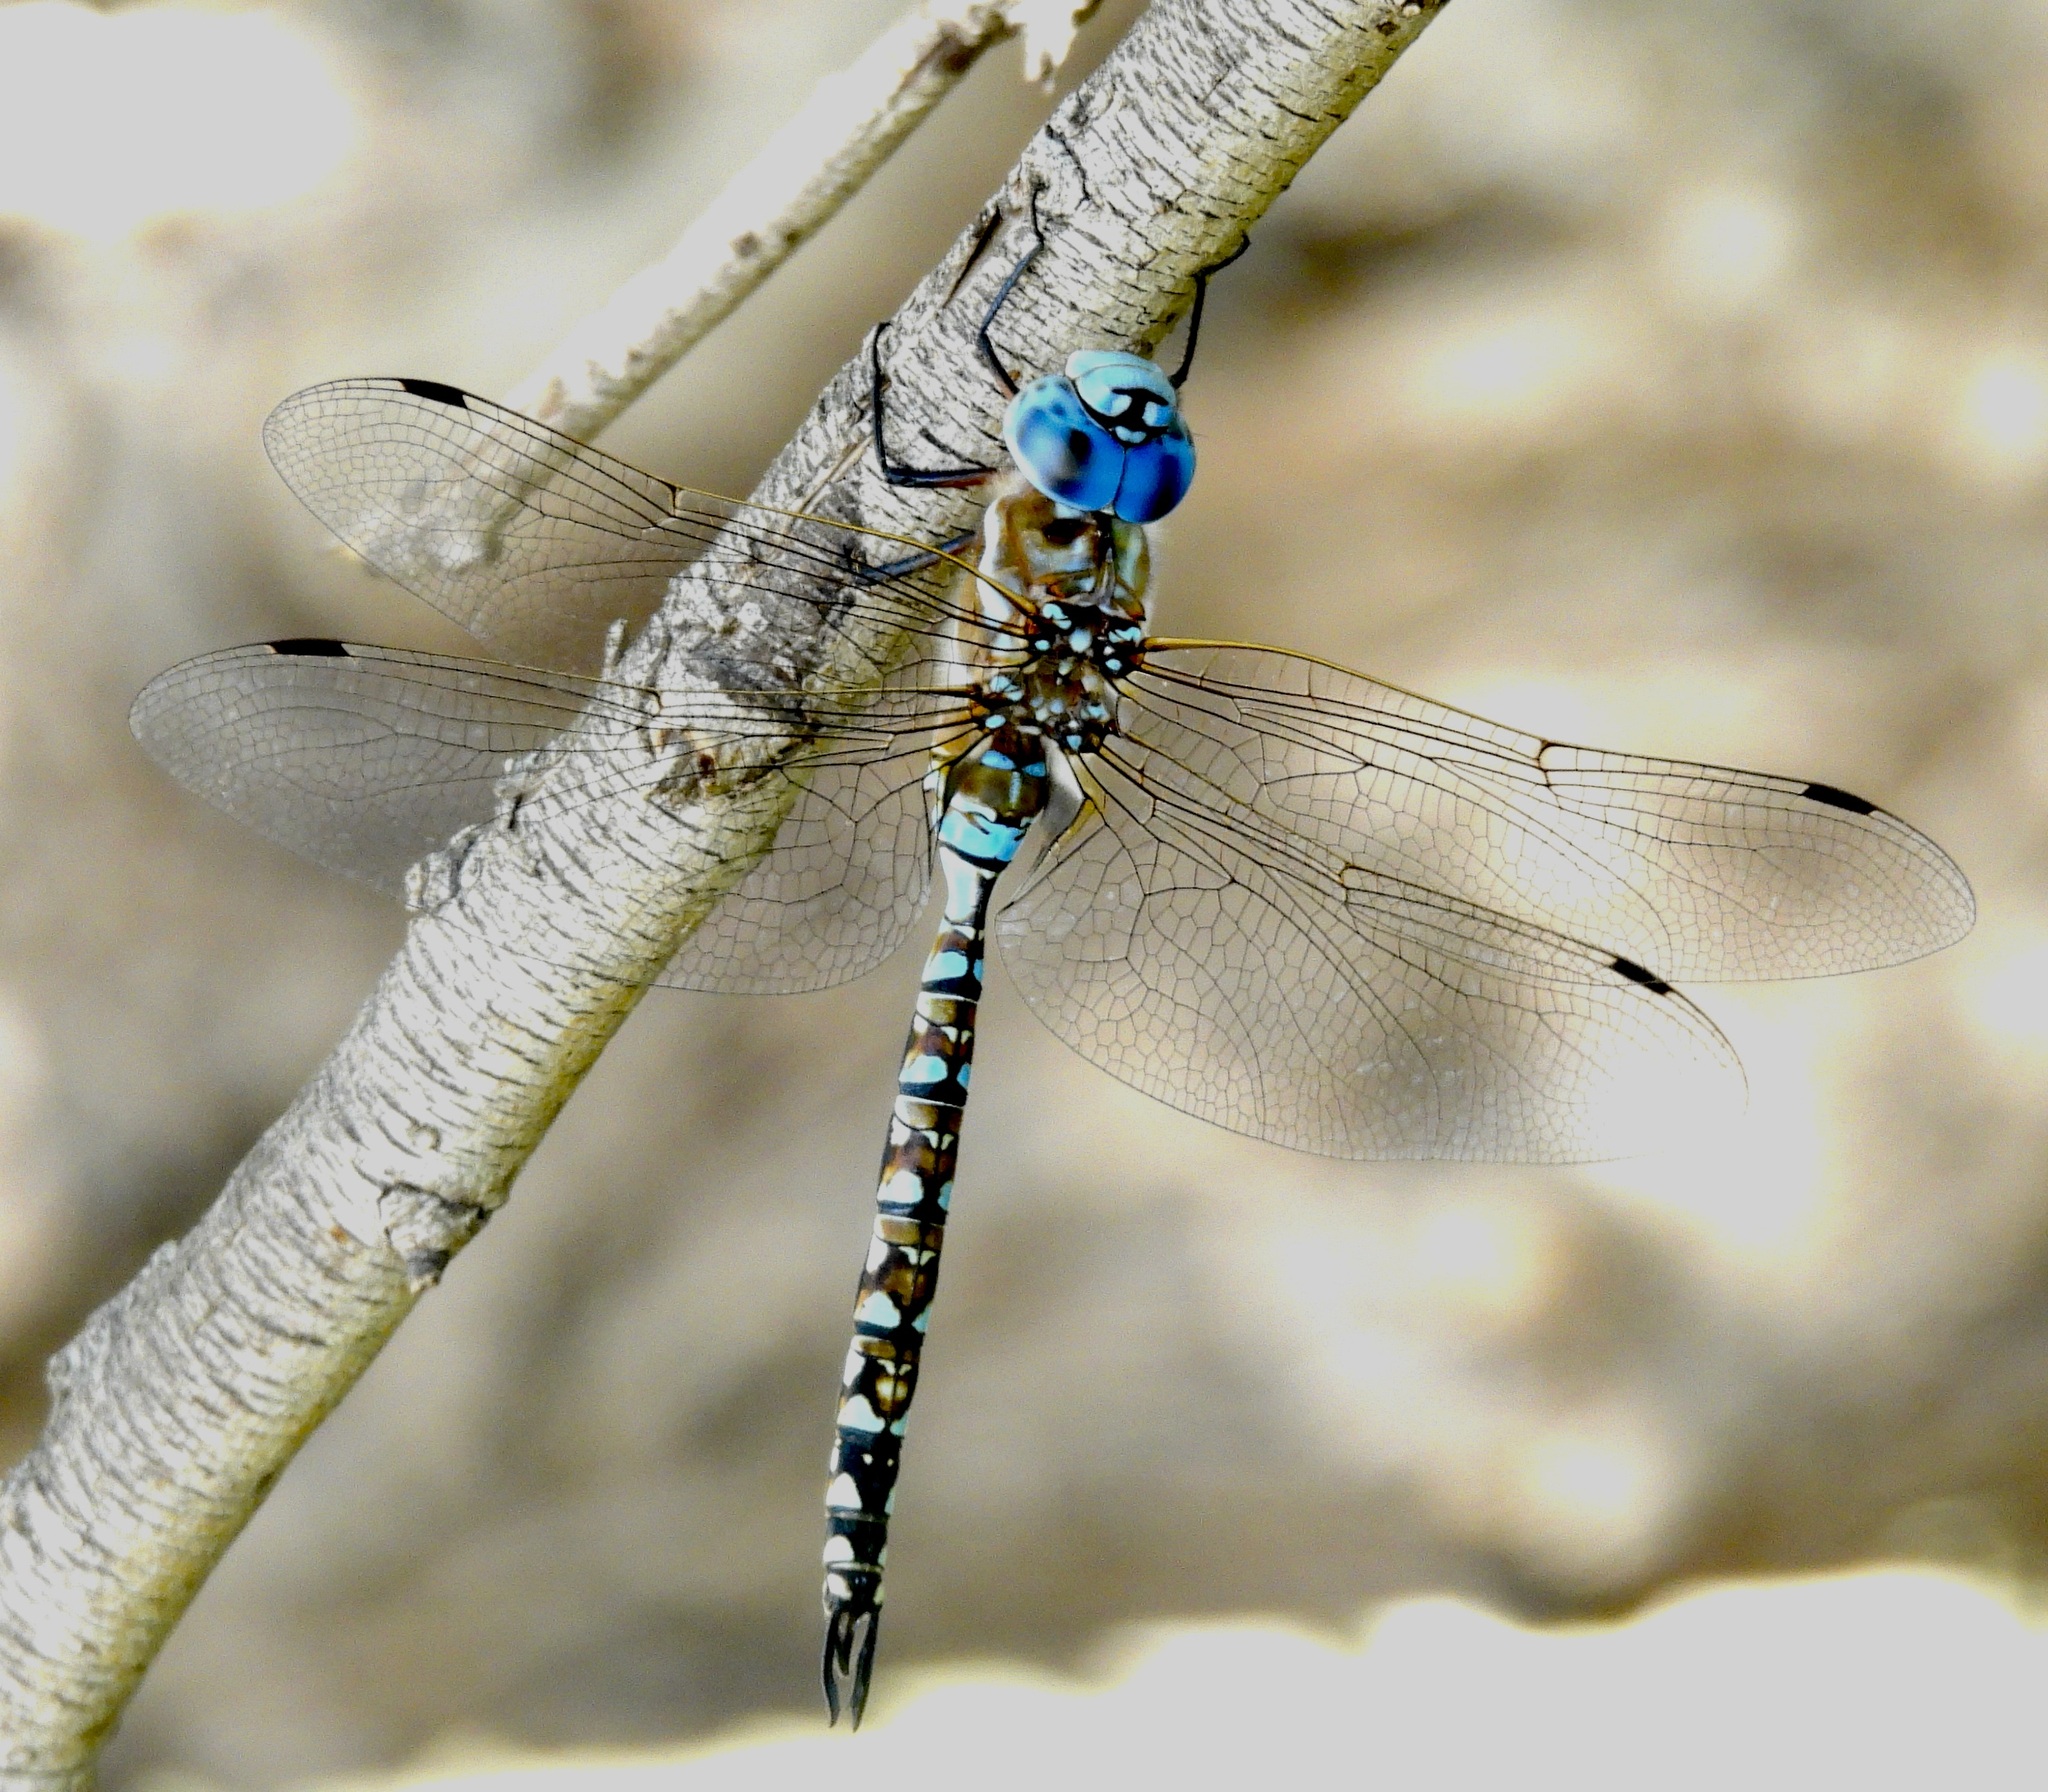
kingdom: Animalia
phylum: Arthropoda
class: Insecta
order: Odonata
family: Aeshnidae
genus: Rhionaeschna
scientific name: Rhionaeschna multicolor
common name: Blue-eyed darner
